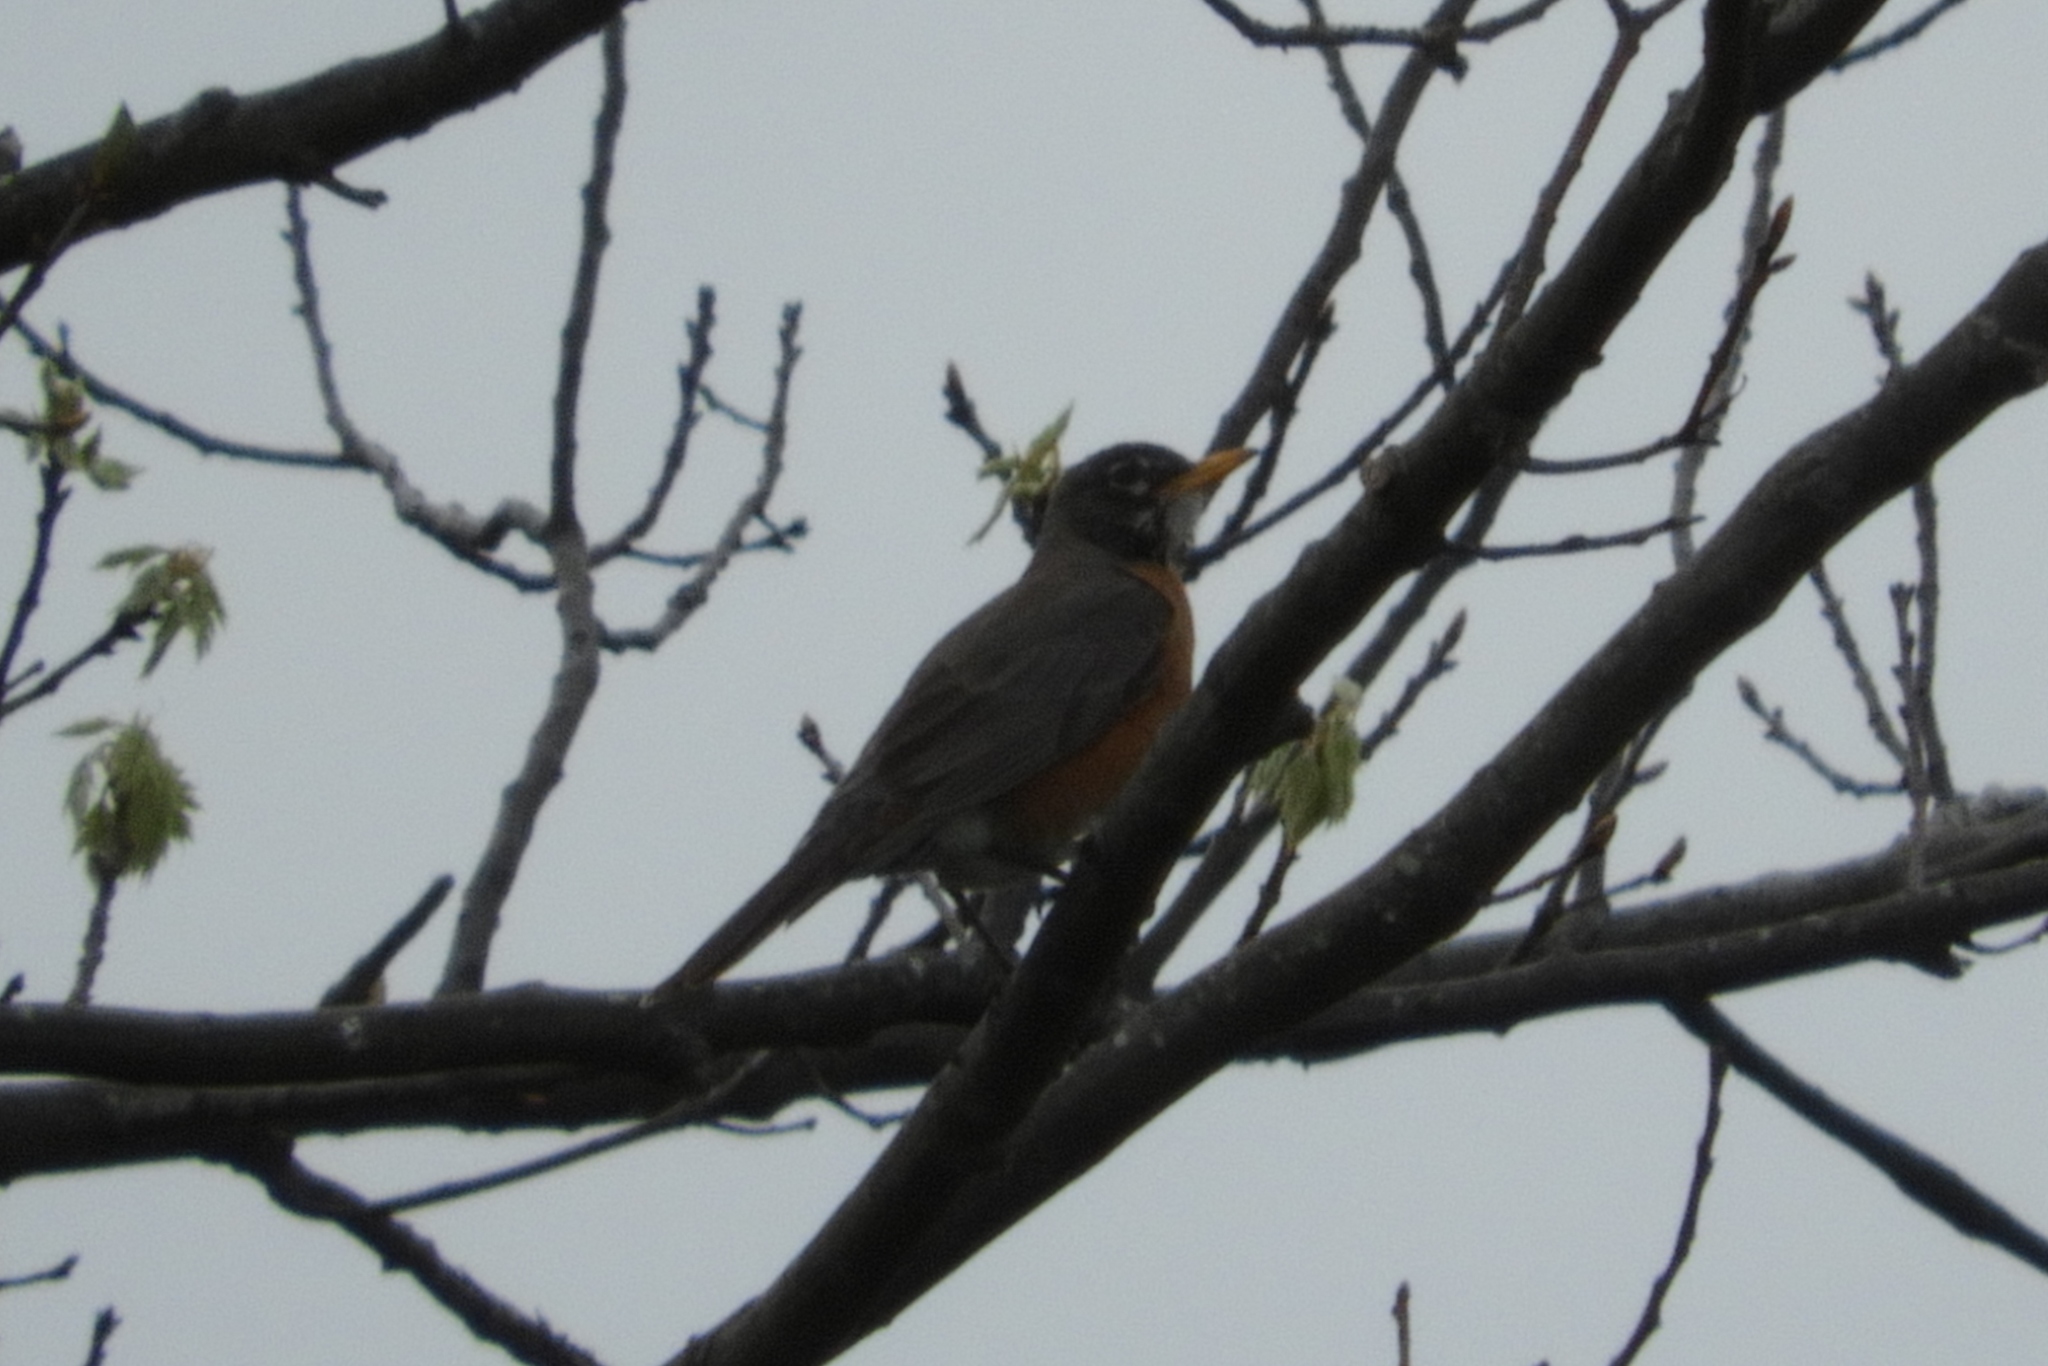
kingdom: Animalia
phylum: Chordata
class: Aves
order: Passeriformes
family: Turdidae
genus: Turdus
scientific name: Turdus migratorius
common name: American robin
